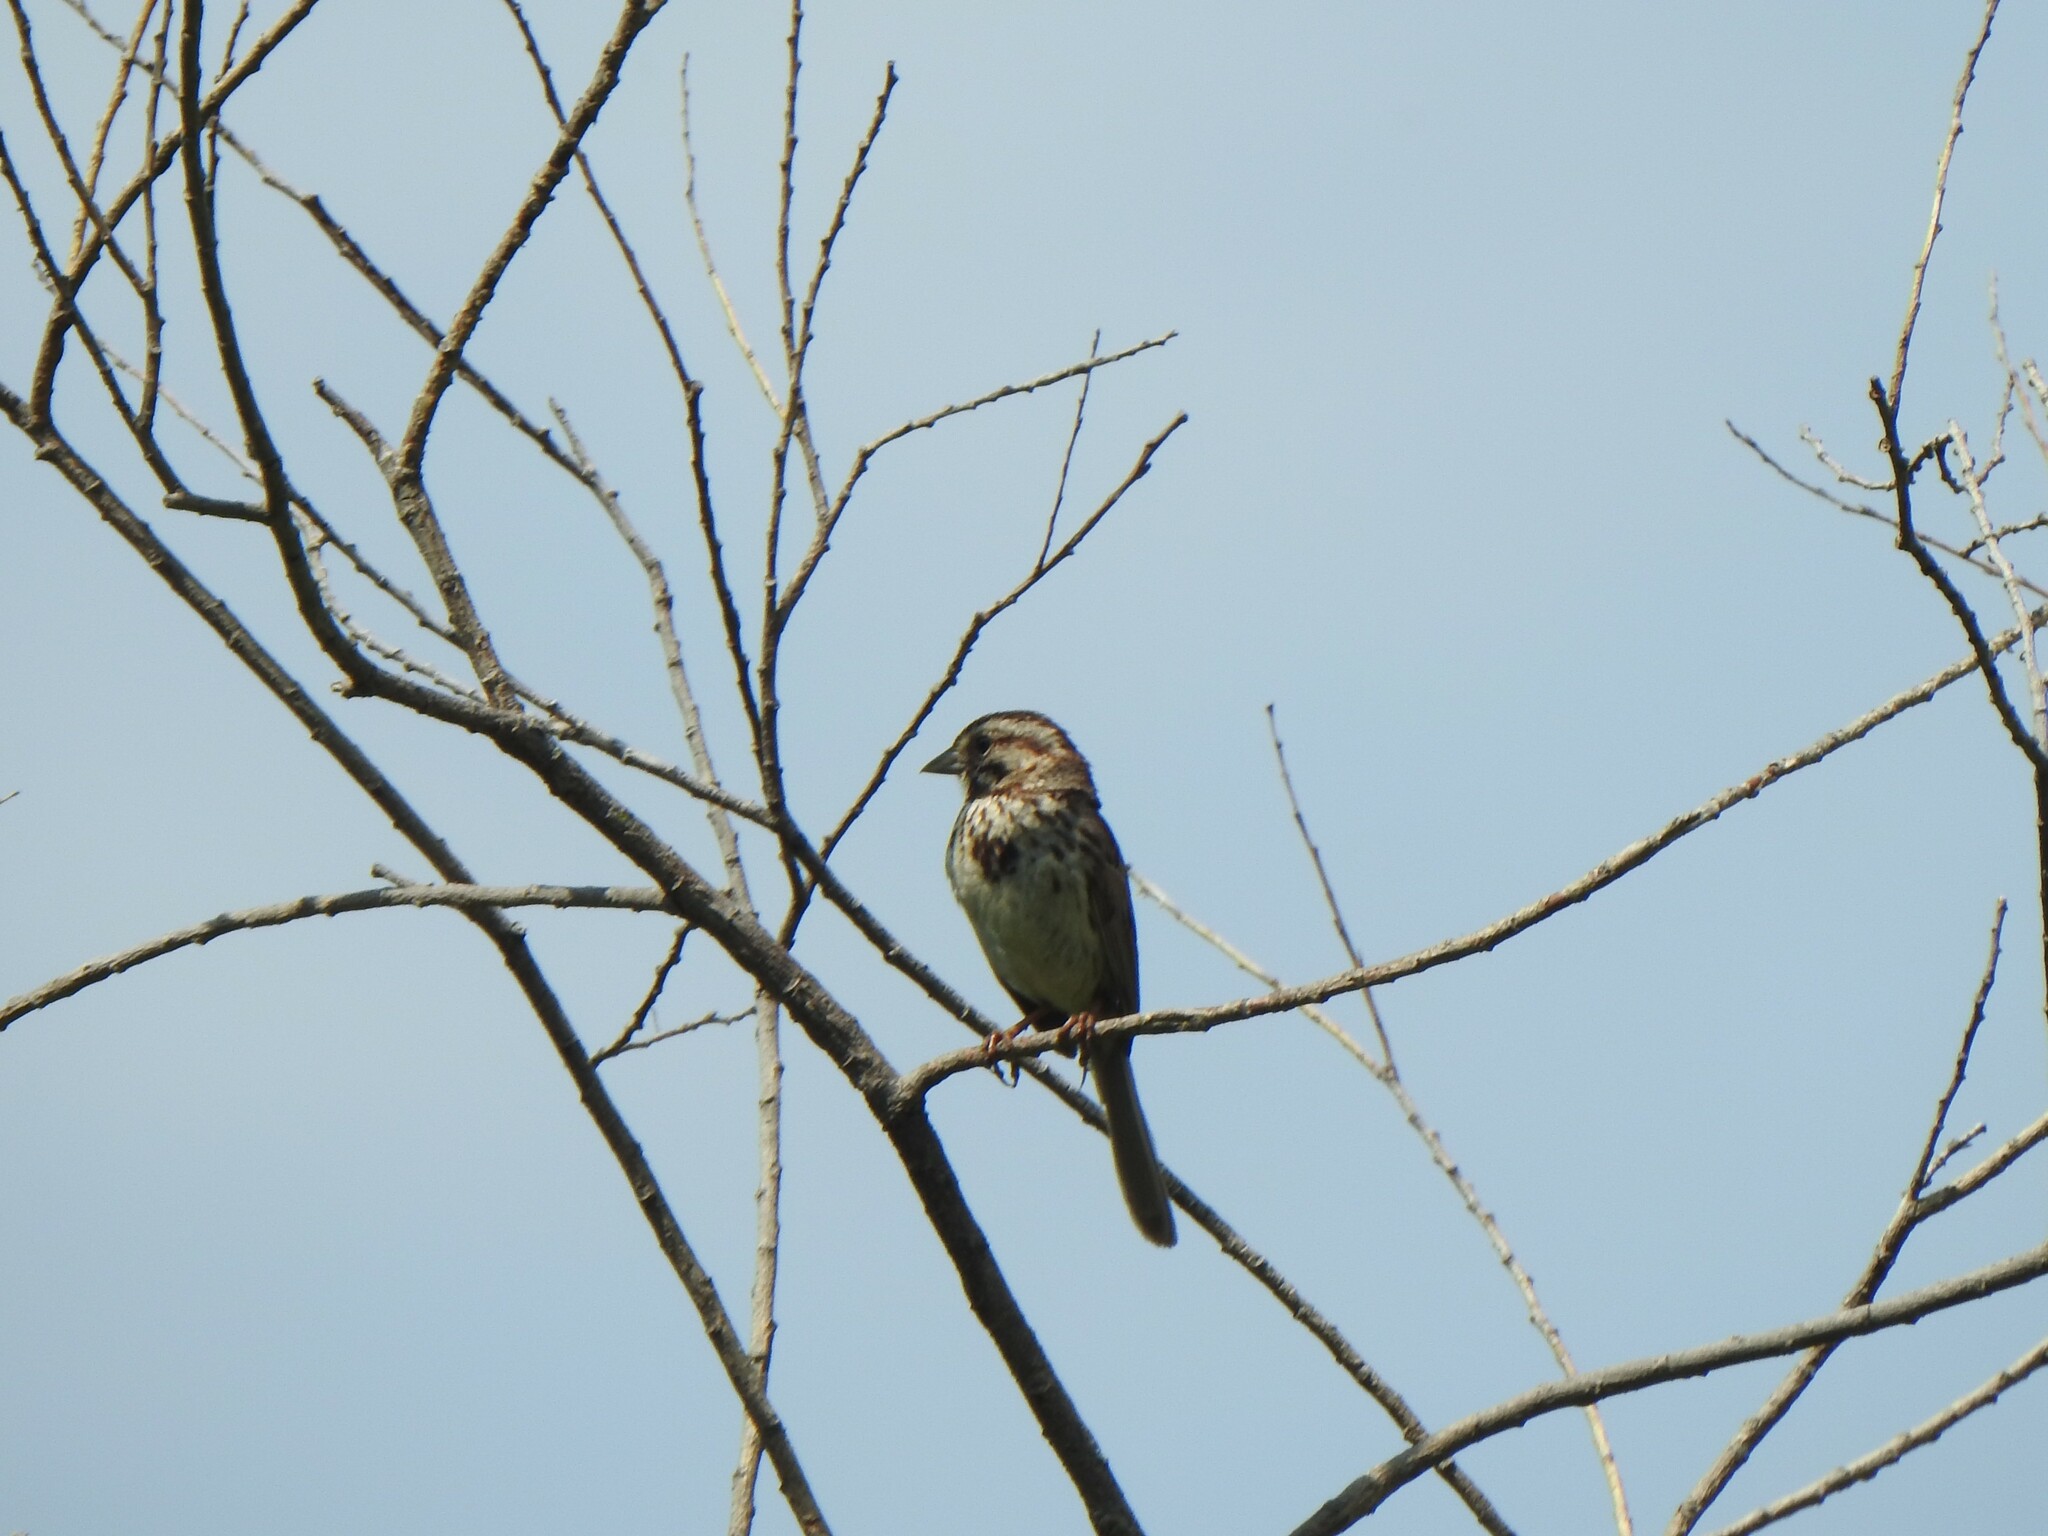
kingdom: Animalia
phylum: Chordata
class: Aves
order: Passeriformes
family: Passerellidae
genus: Melospiza
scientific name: Melospiza melodia
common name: Song sparrow
